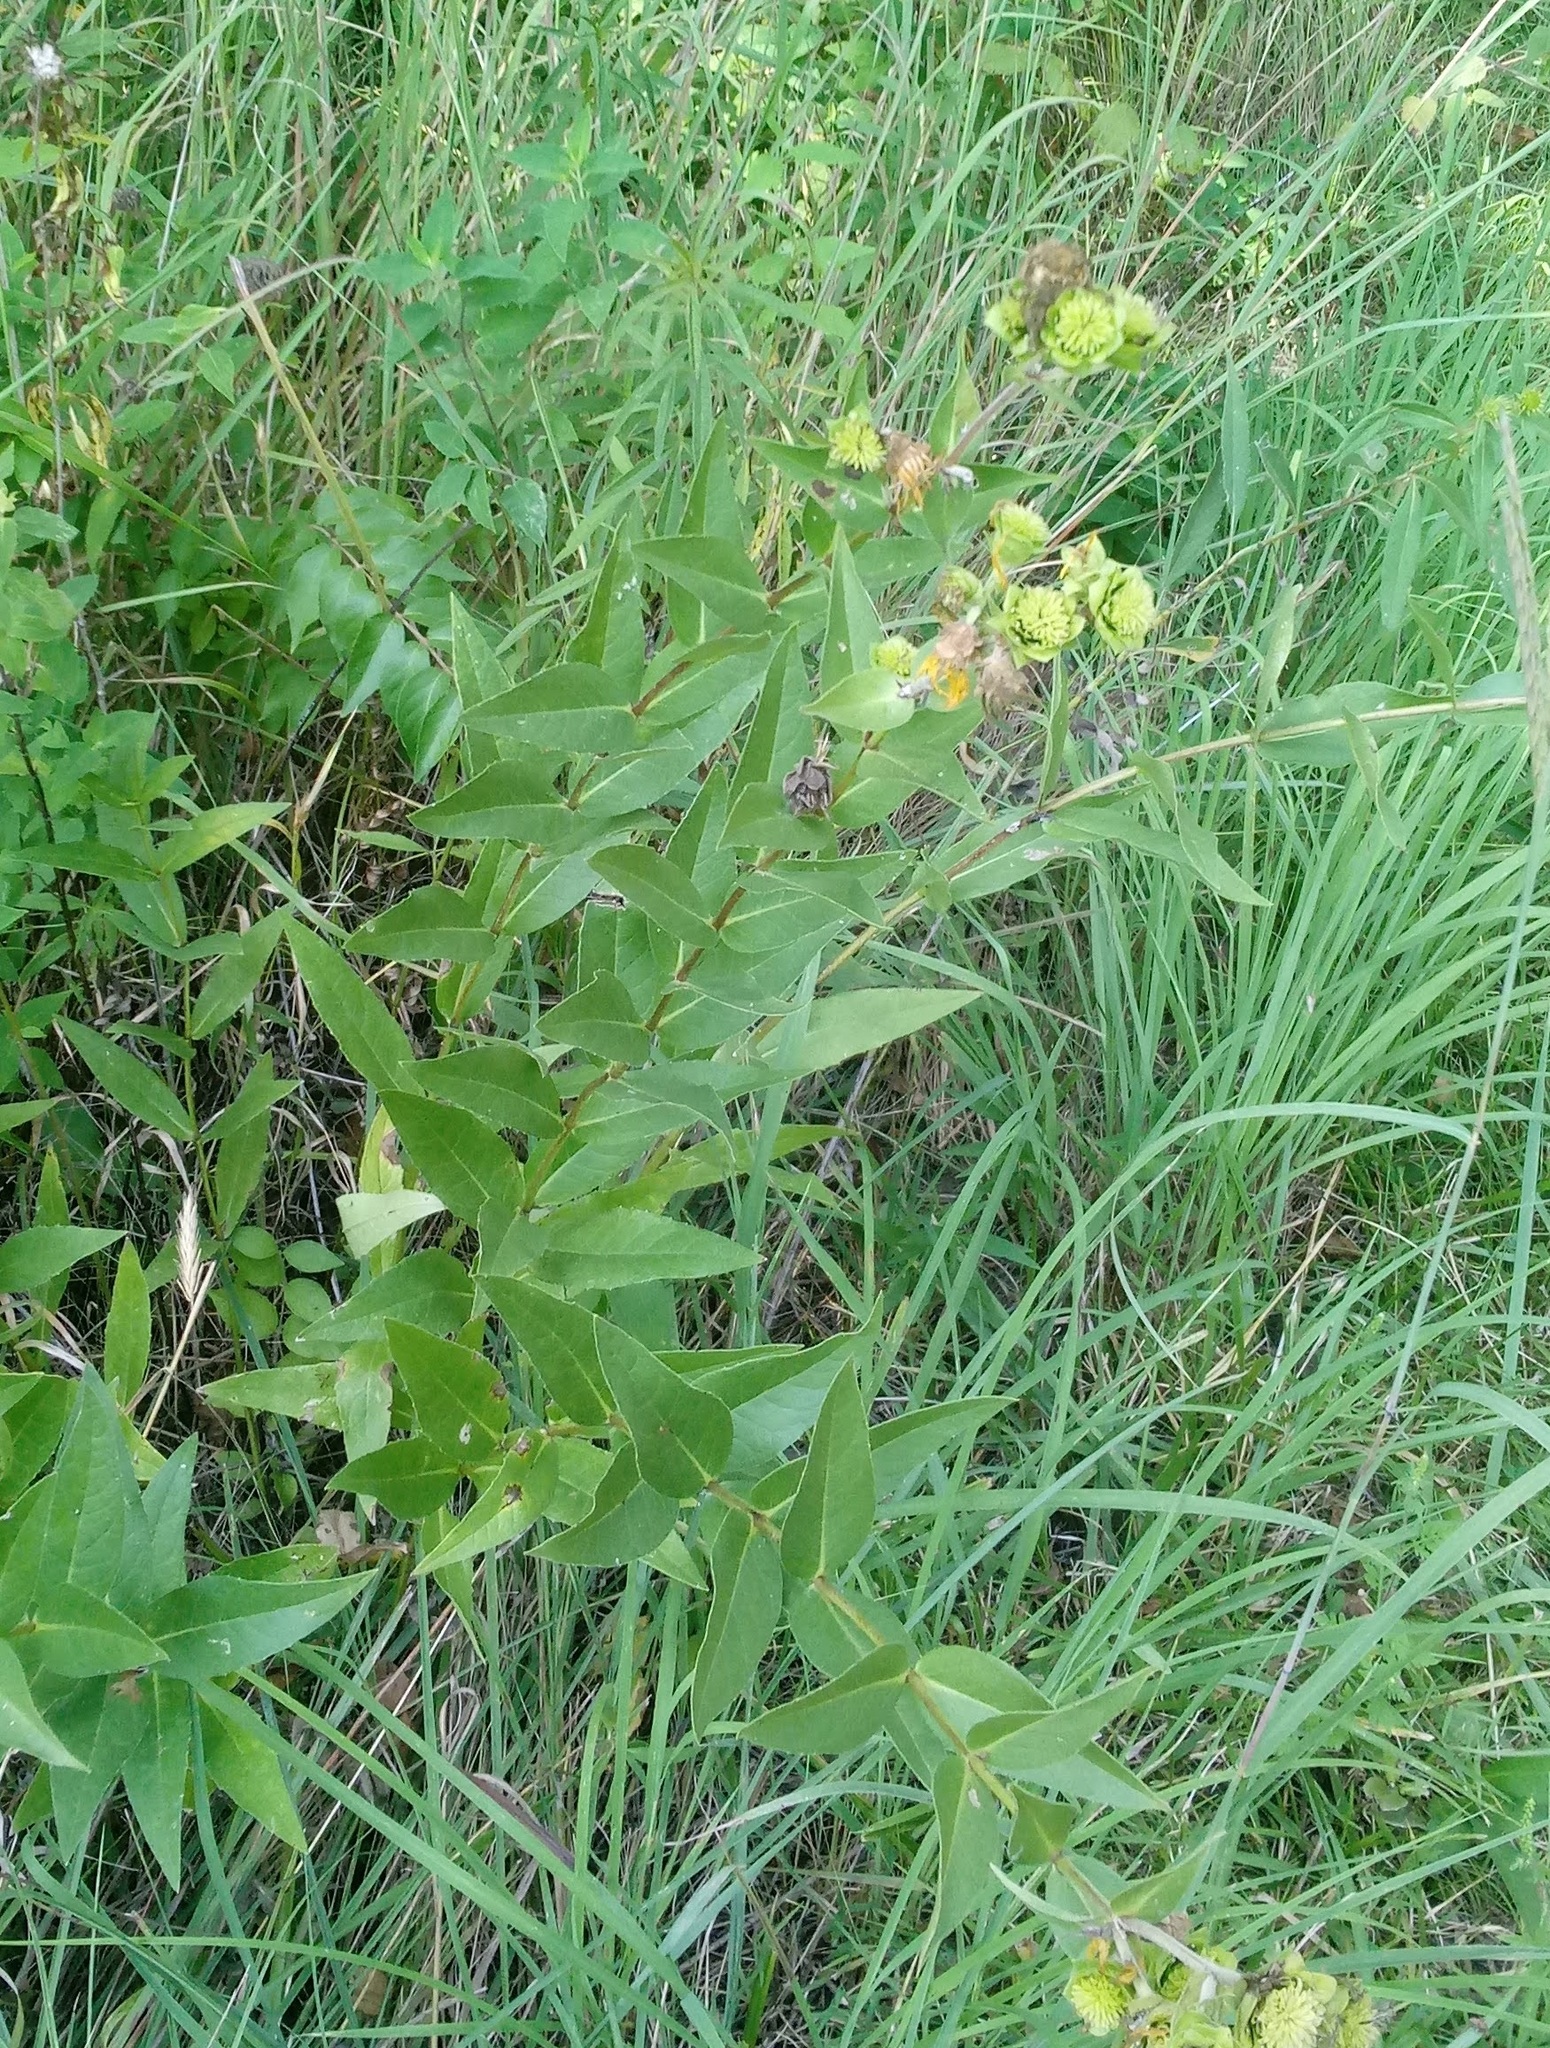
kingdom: Plantae
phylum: Tracheophyta
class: Magnoliopsida
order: Asterales
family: Asteraceae
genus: Silphium
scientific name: Silphium integrifolium
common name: Whole-leaf rosinweed
